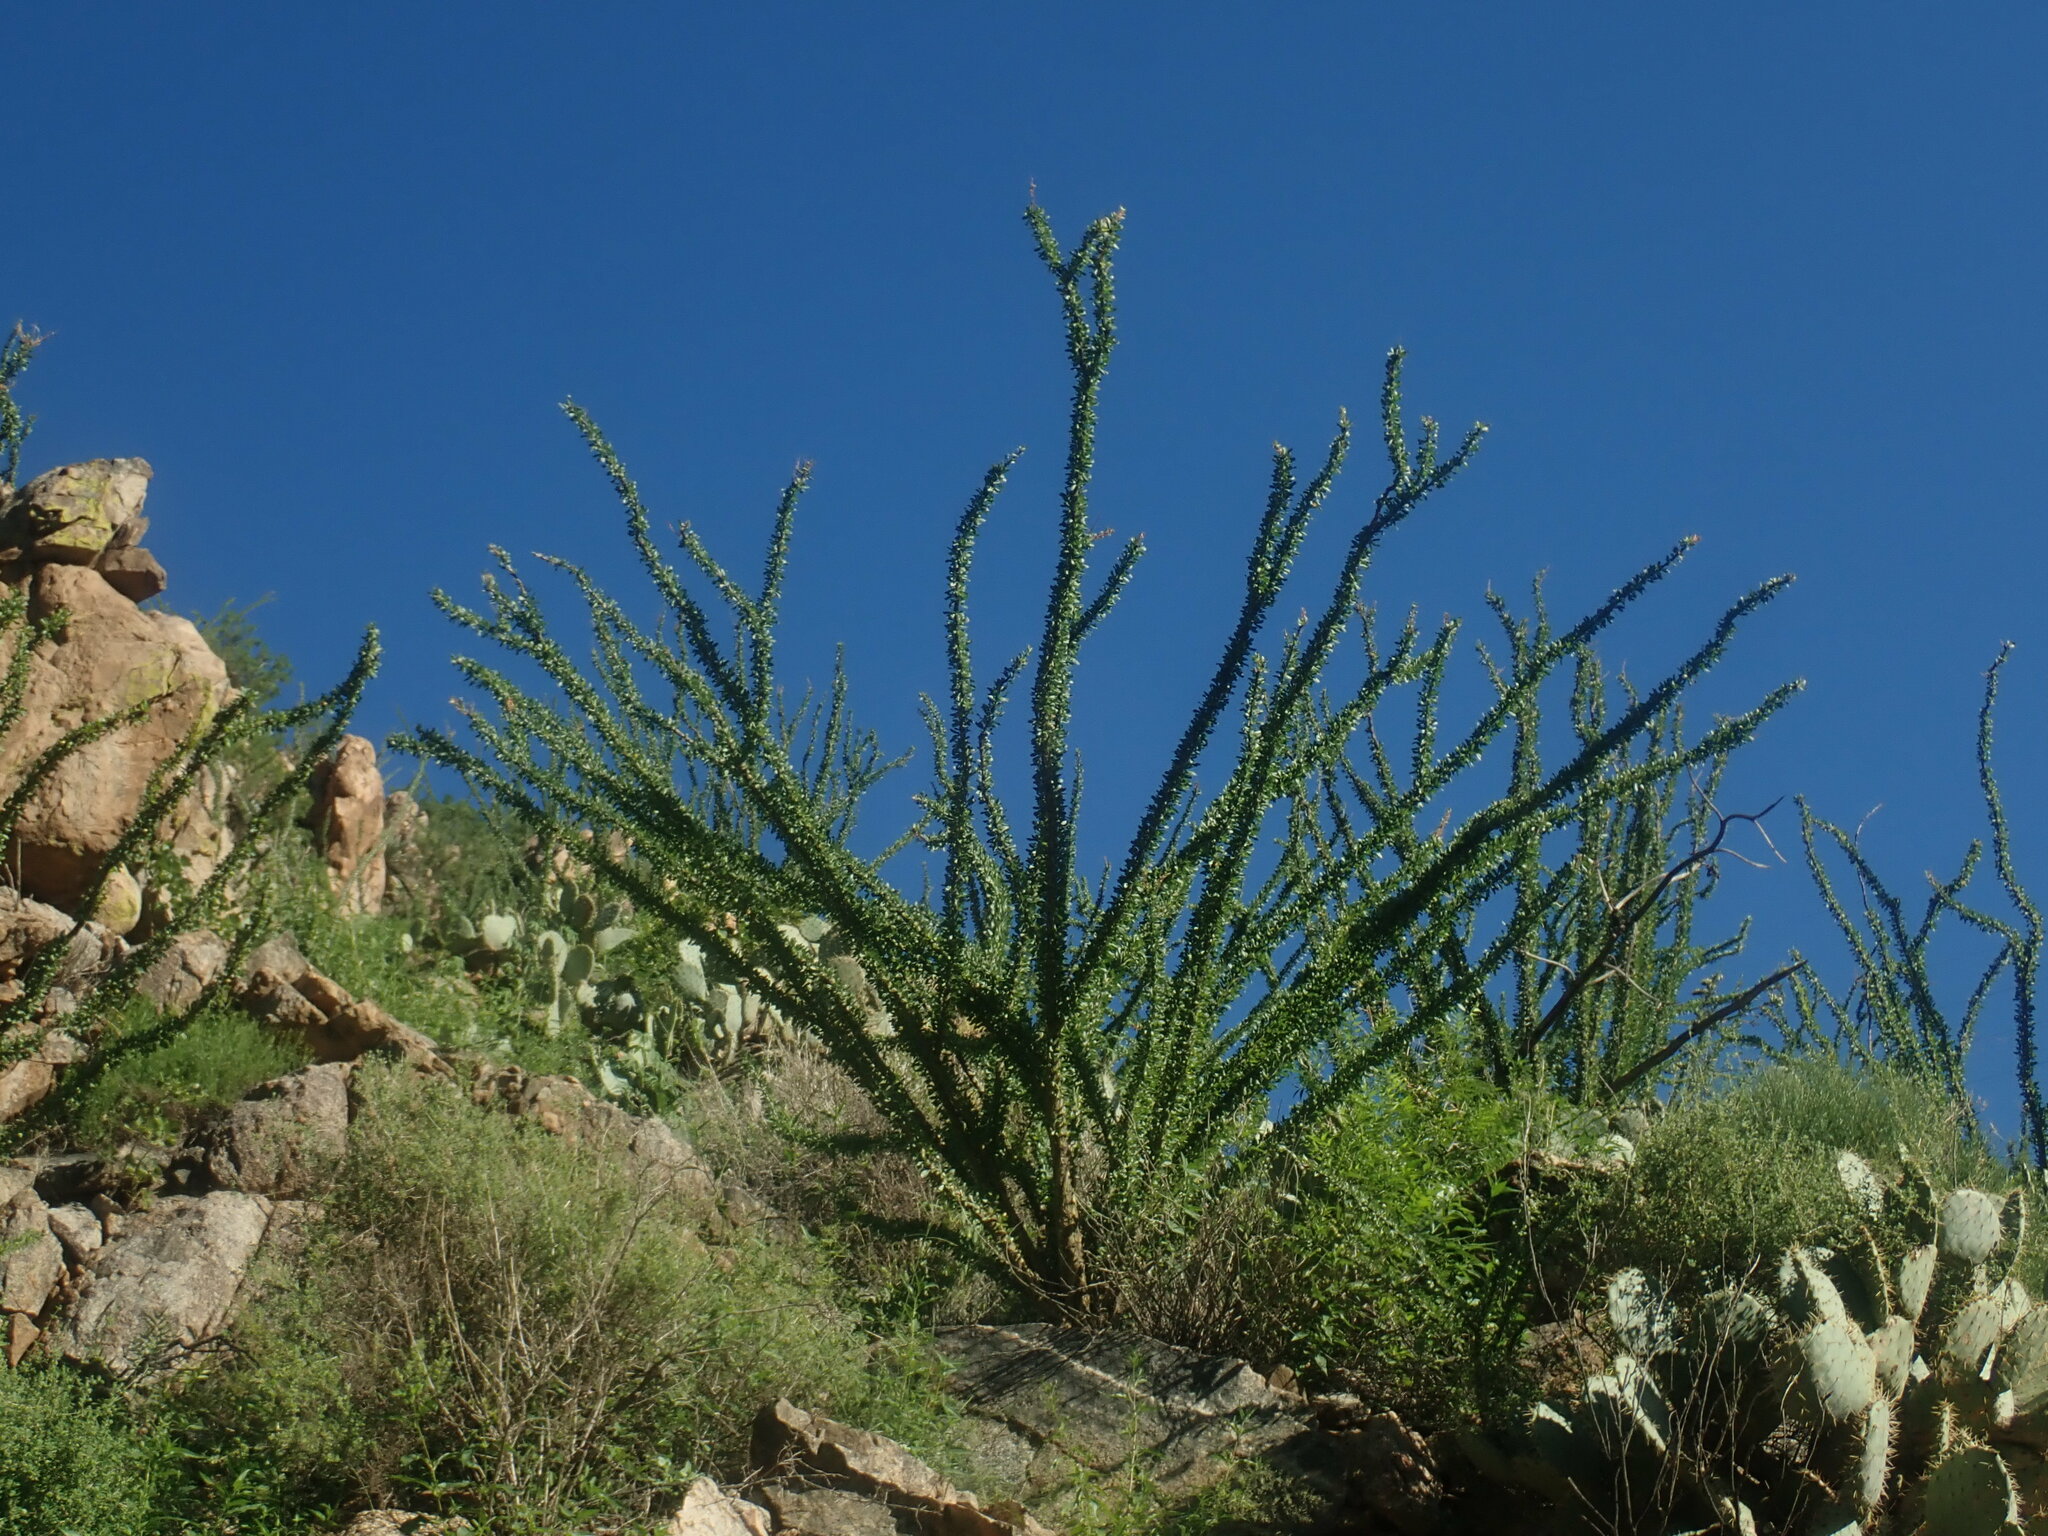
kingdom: Plantae
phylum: Tracheophyta
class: Magnoliopsida
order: Ericales
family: Fouquieriaceae
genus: Fouquieria
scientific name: Fouquieria splendens
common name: Vine-cactus
